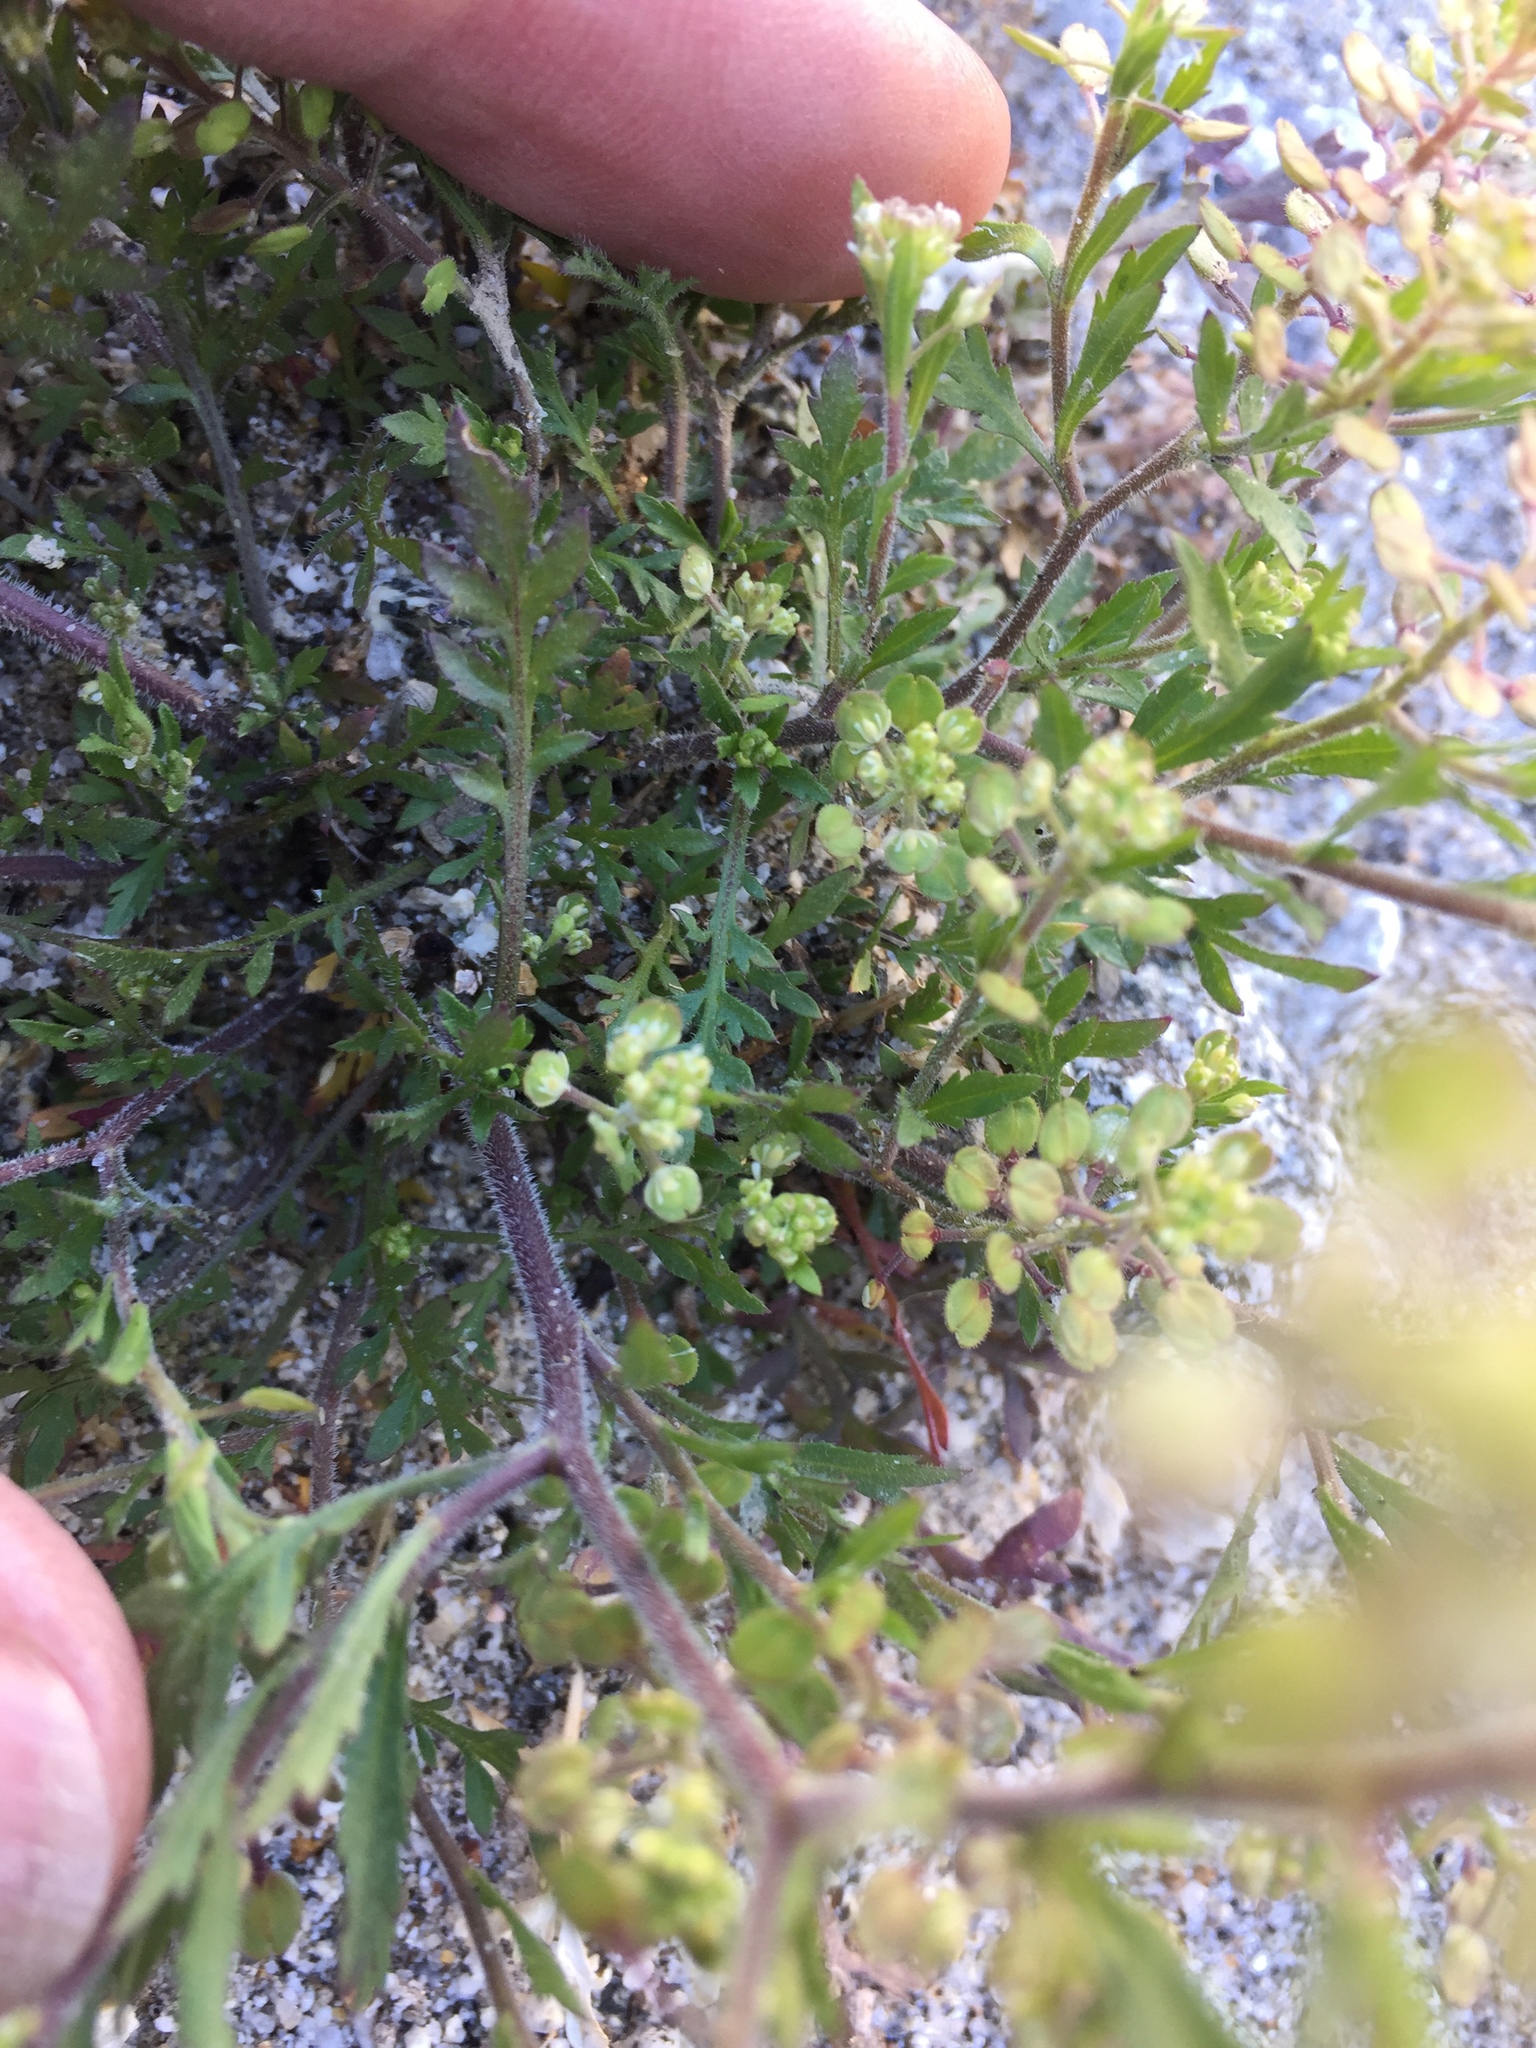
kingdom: Plantae
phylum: Tracheophyta
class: Magnoliopsida
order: Brassicales
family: Brassicaceae
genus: Lepidium
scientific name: Lepidium lasiocarpum
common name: Hairy-pod pepperwort
